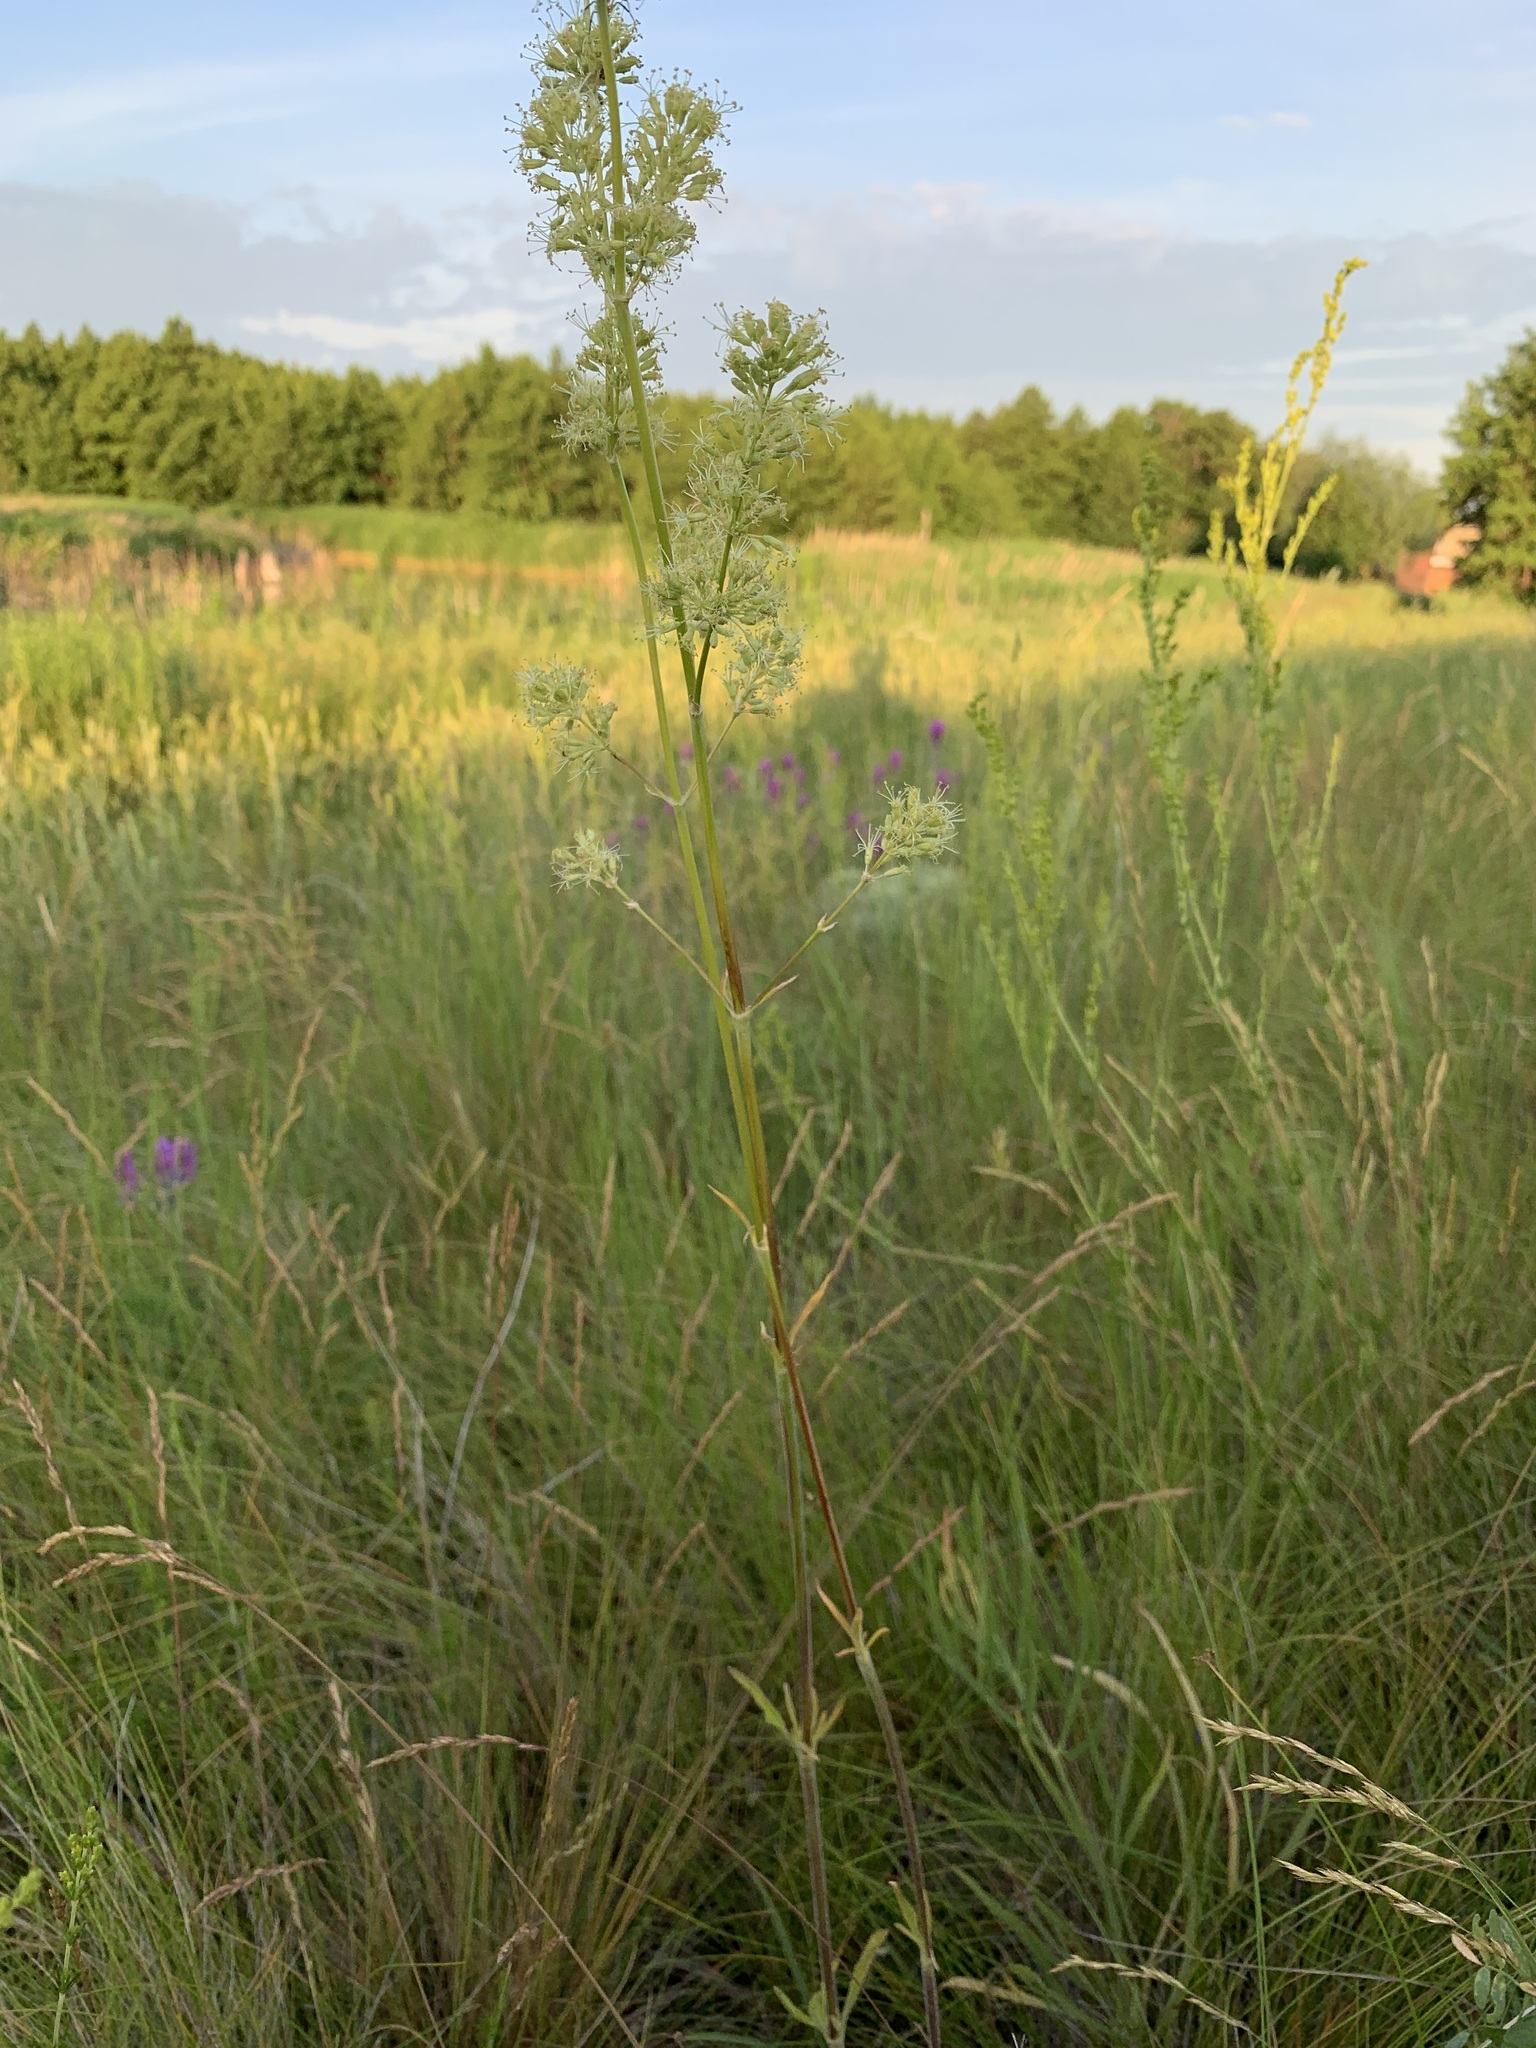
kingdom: Plantae
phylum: Tracheophyta
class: Magnoliopsida
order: Caryophyllales
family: Caryophyllaceae
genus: Silene
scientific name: Silene
